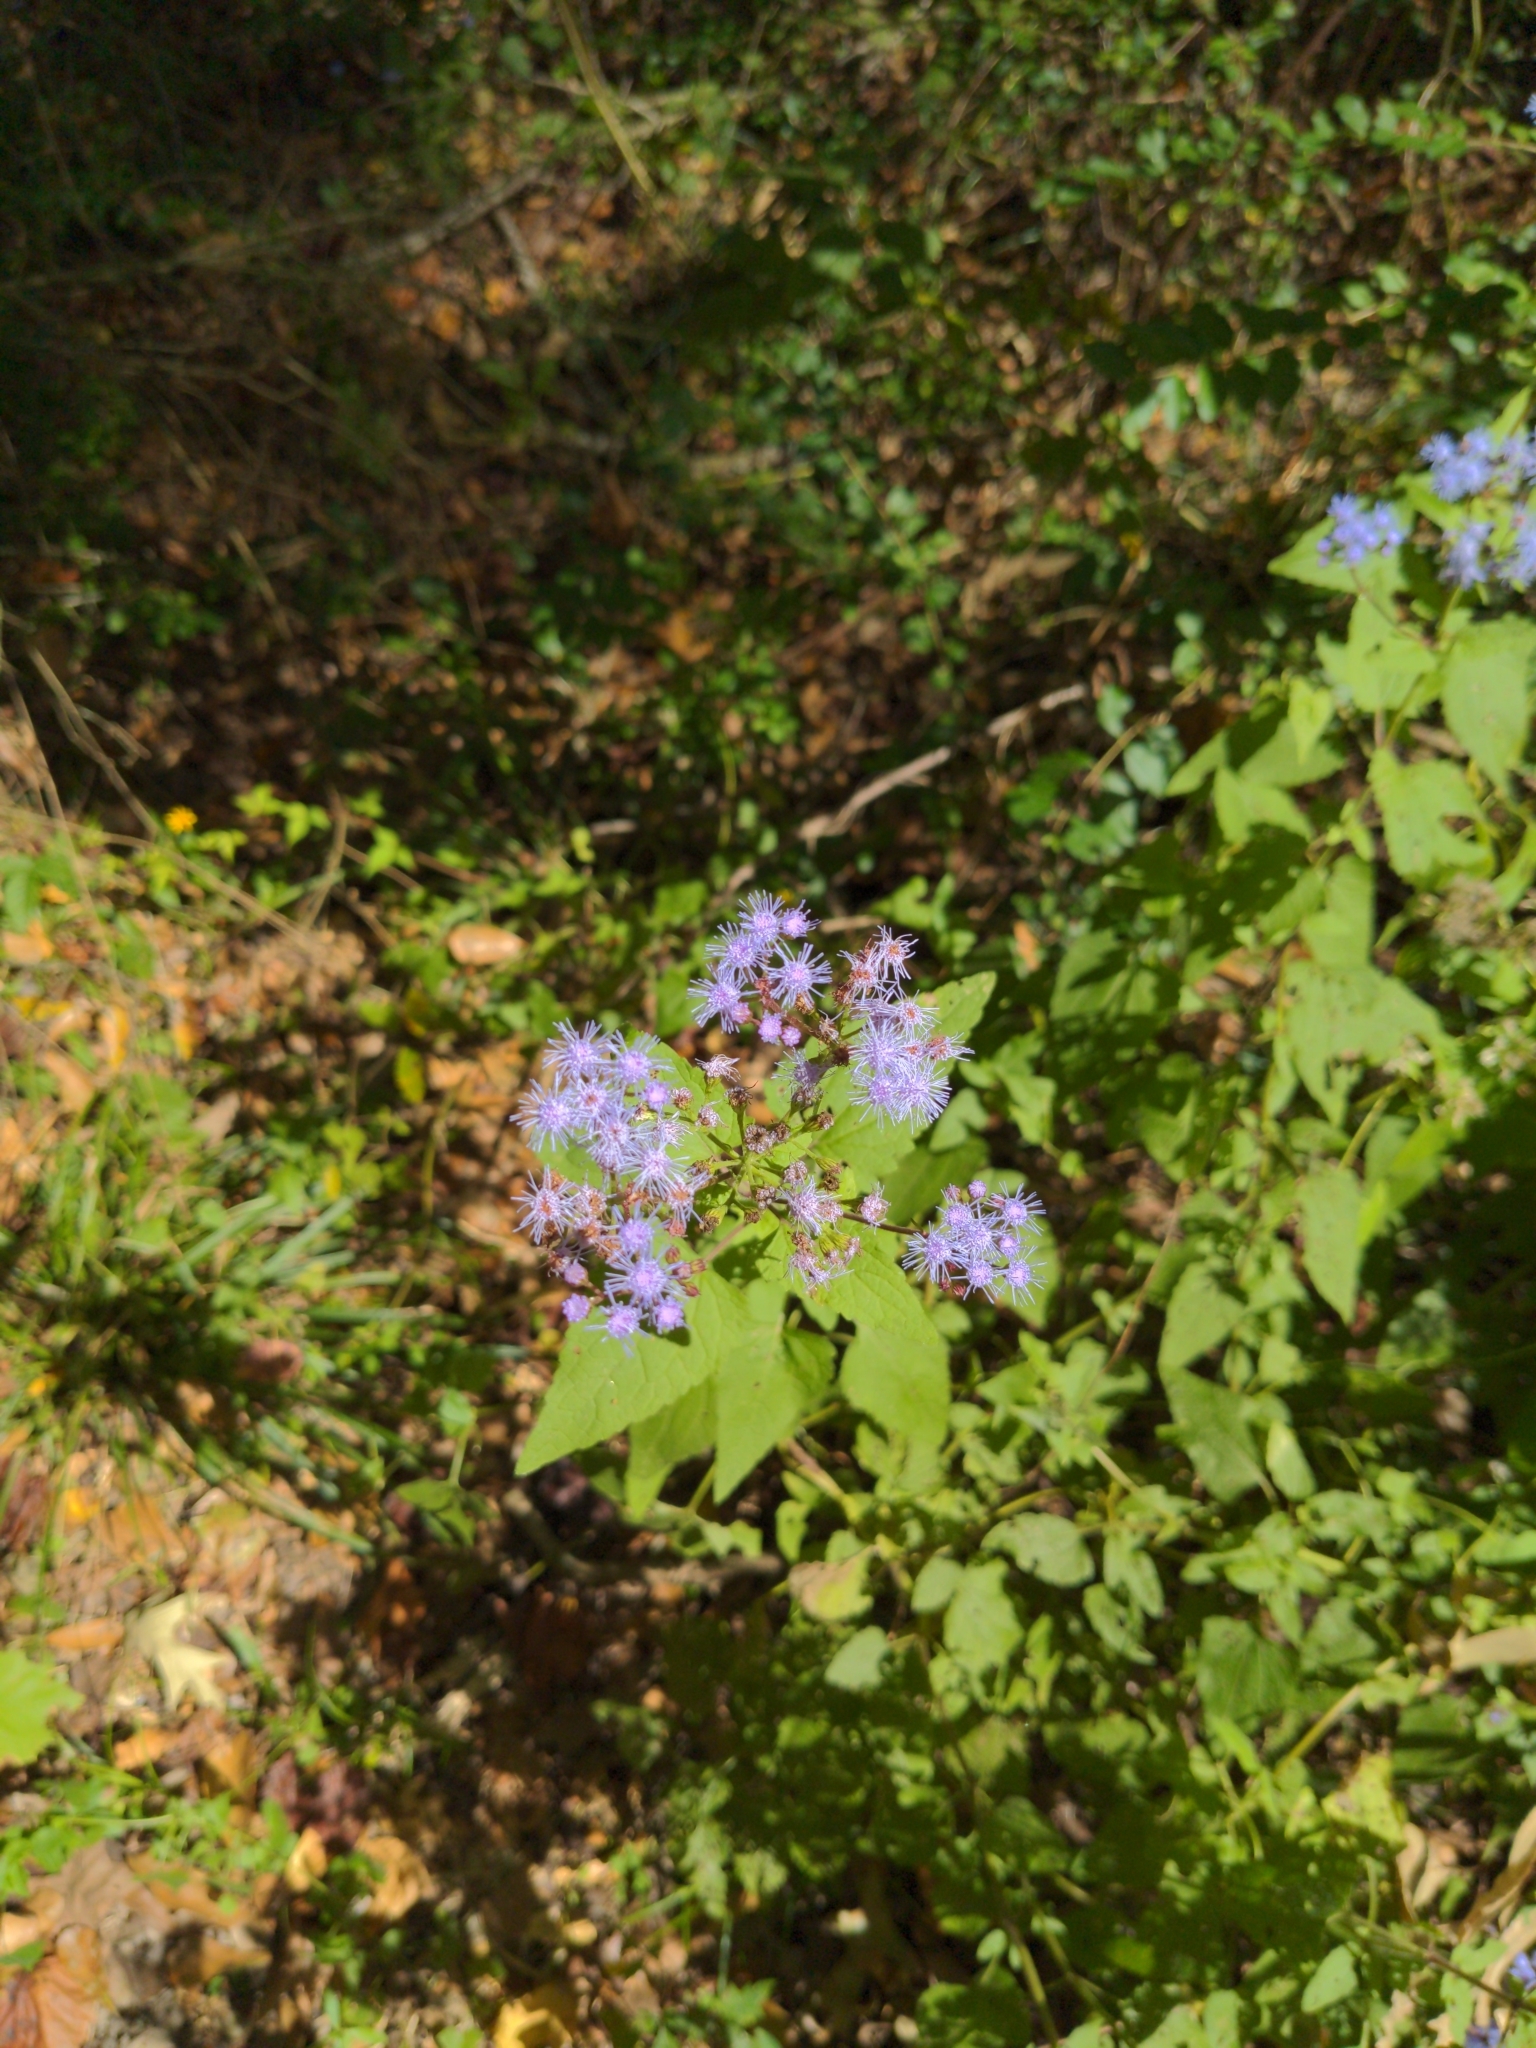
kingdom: Plantae
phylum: Tracheophyta
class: Magnoliopsida
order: Asterales
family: Asteraceae
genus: Conoclinium
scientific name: Conoclinium coelestinum
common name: Blue mistflower
